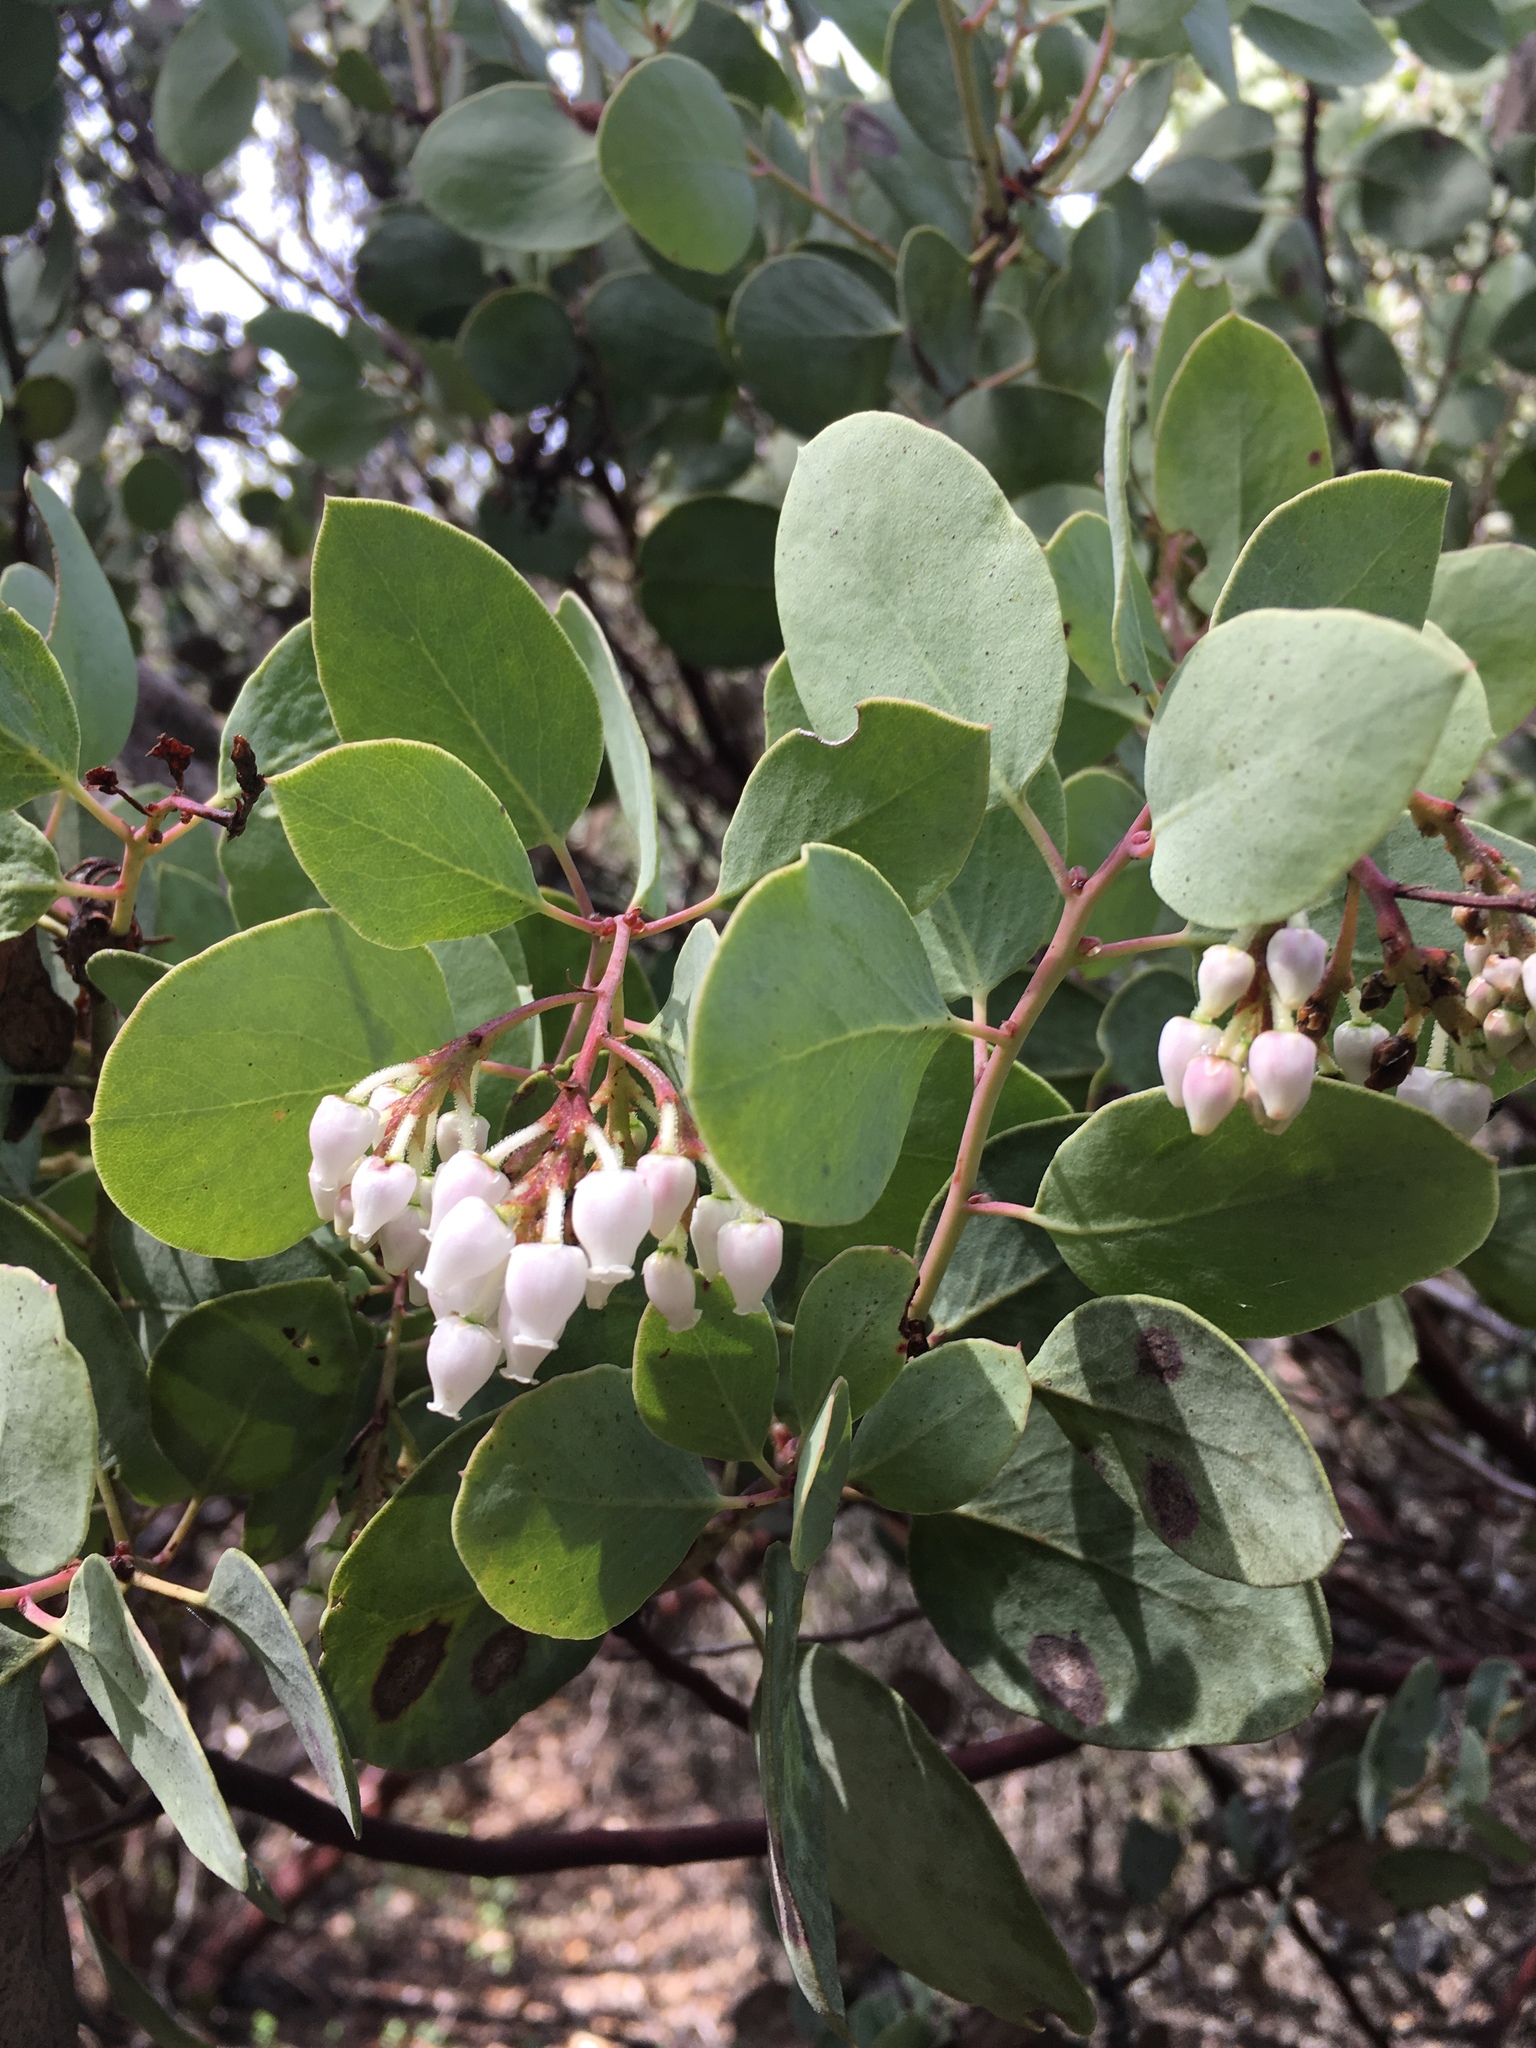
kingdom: Plantae
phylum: Tracheophyta
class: Magnoliopsida
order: Ericales
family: Ericaceae
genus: Arctostaphylos
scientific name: Arctostaphylos viscida
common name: White-leaf manzanita
